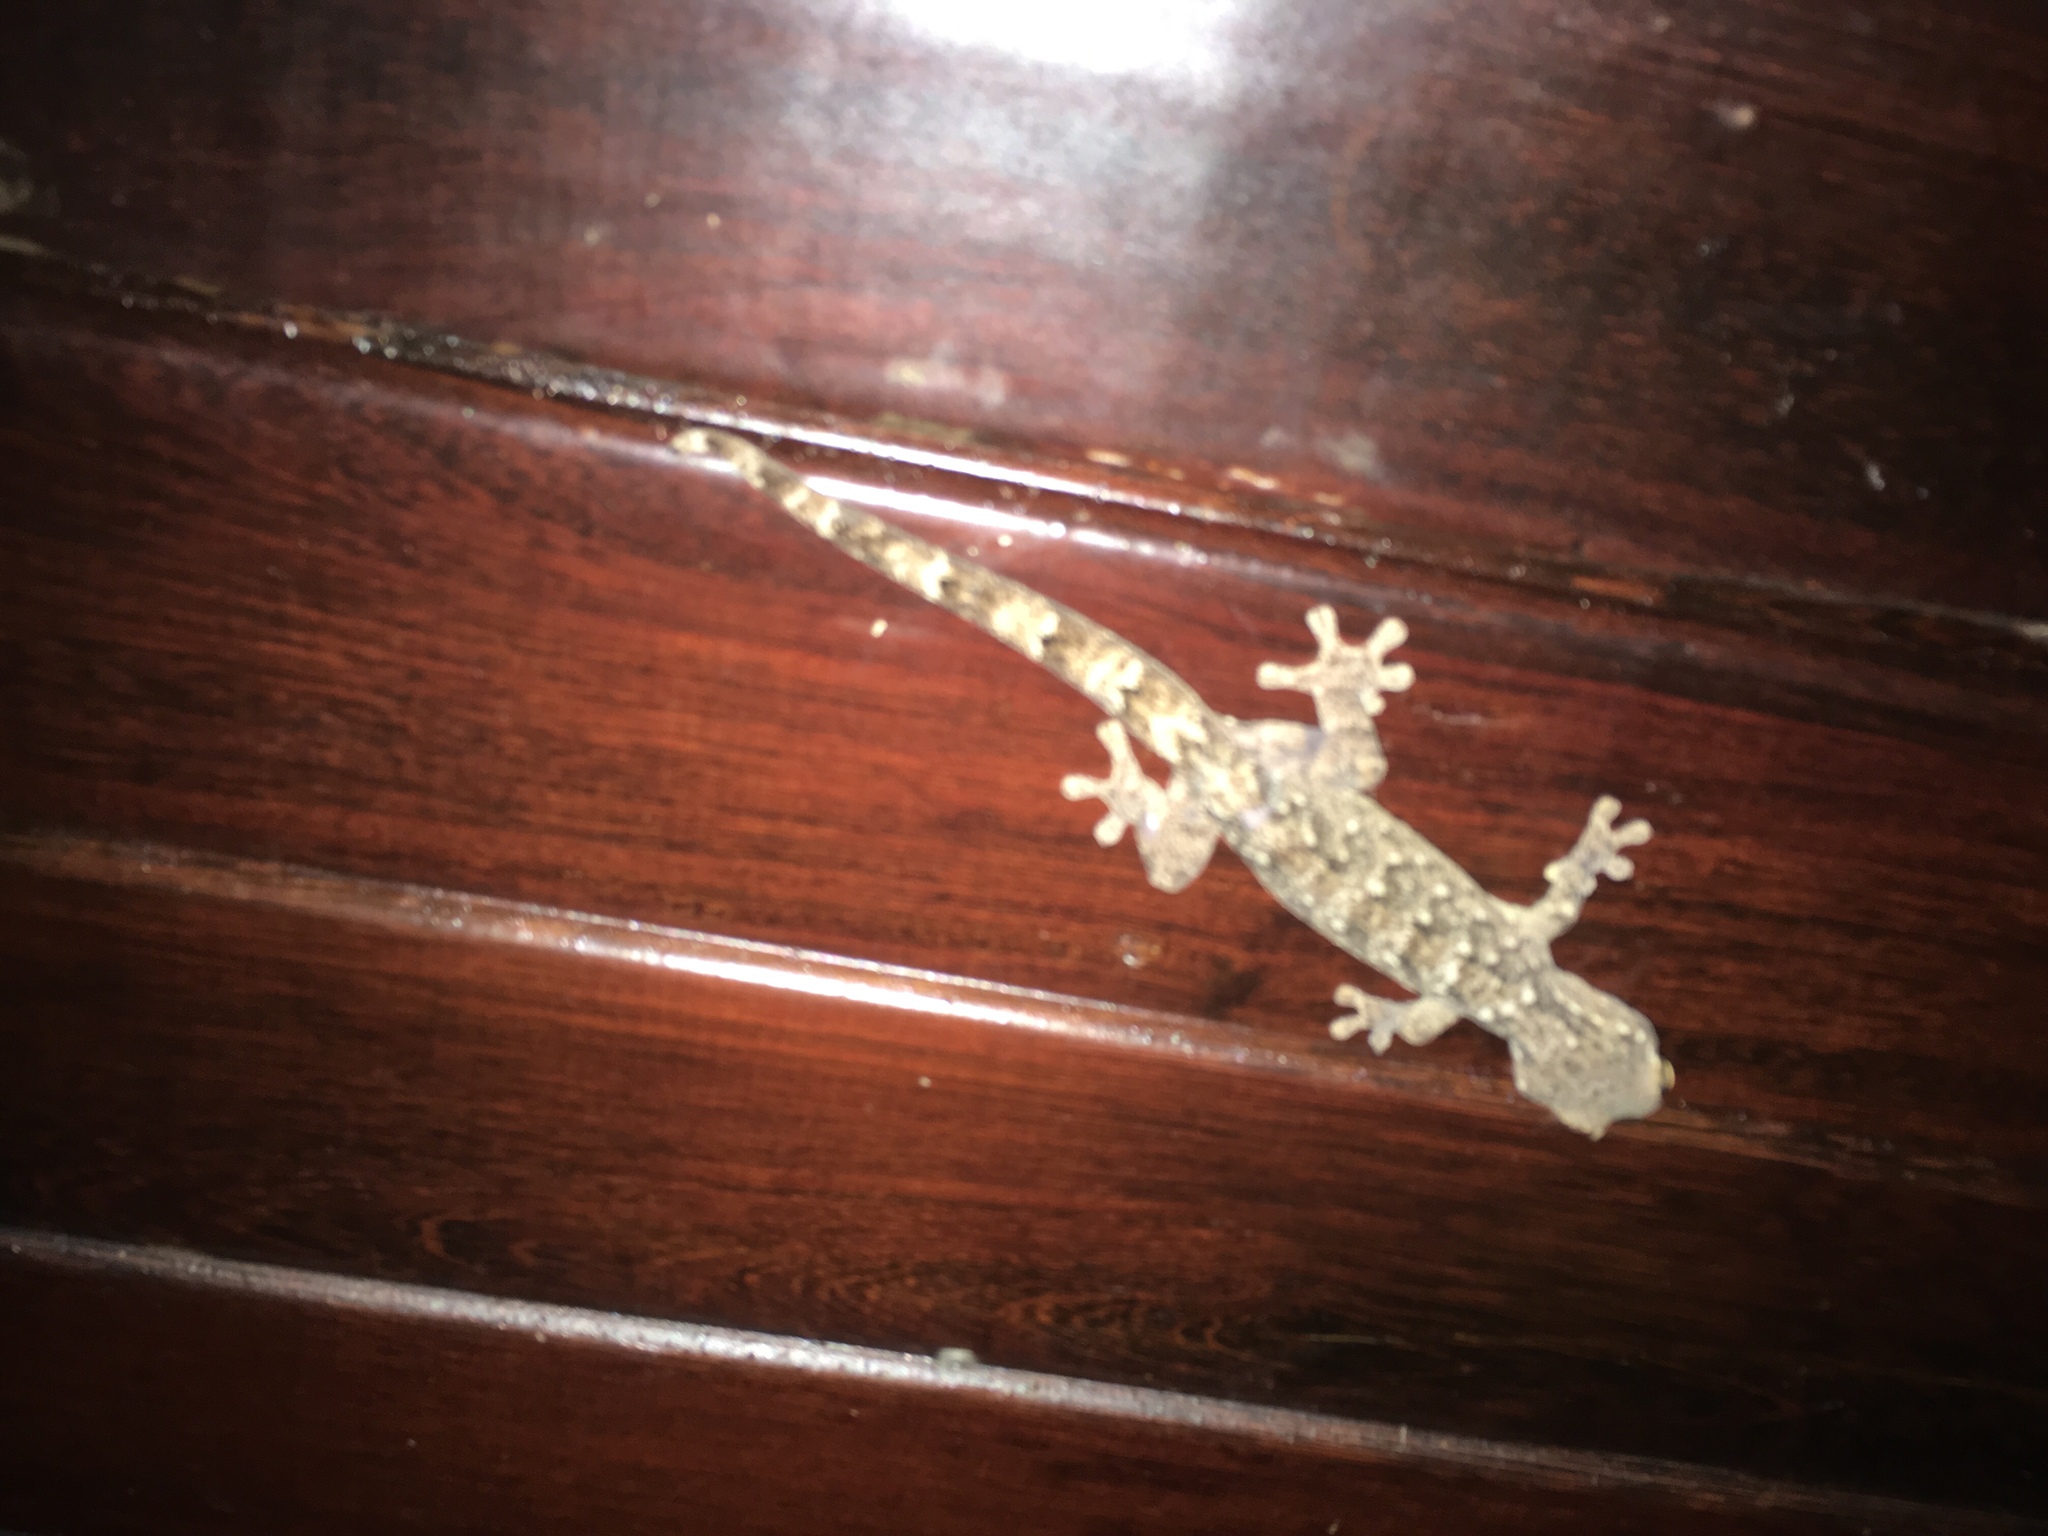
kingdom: Animalia
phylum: Chordata
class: Squamata
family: Phyllodactylidae
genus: Thecadactylus
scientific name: Thecadactylus rapicauda
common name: Turnip-tailed gecko
